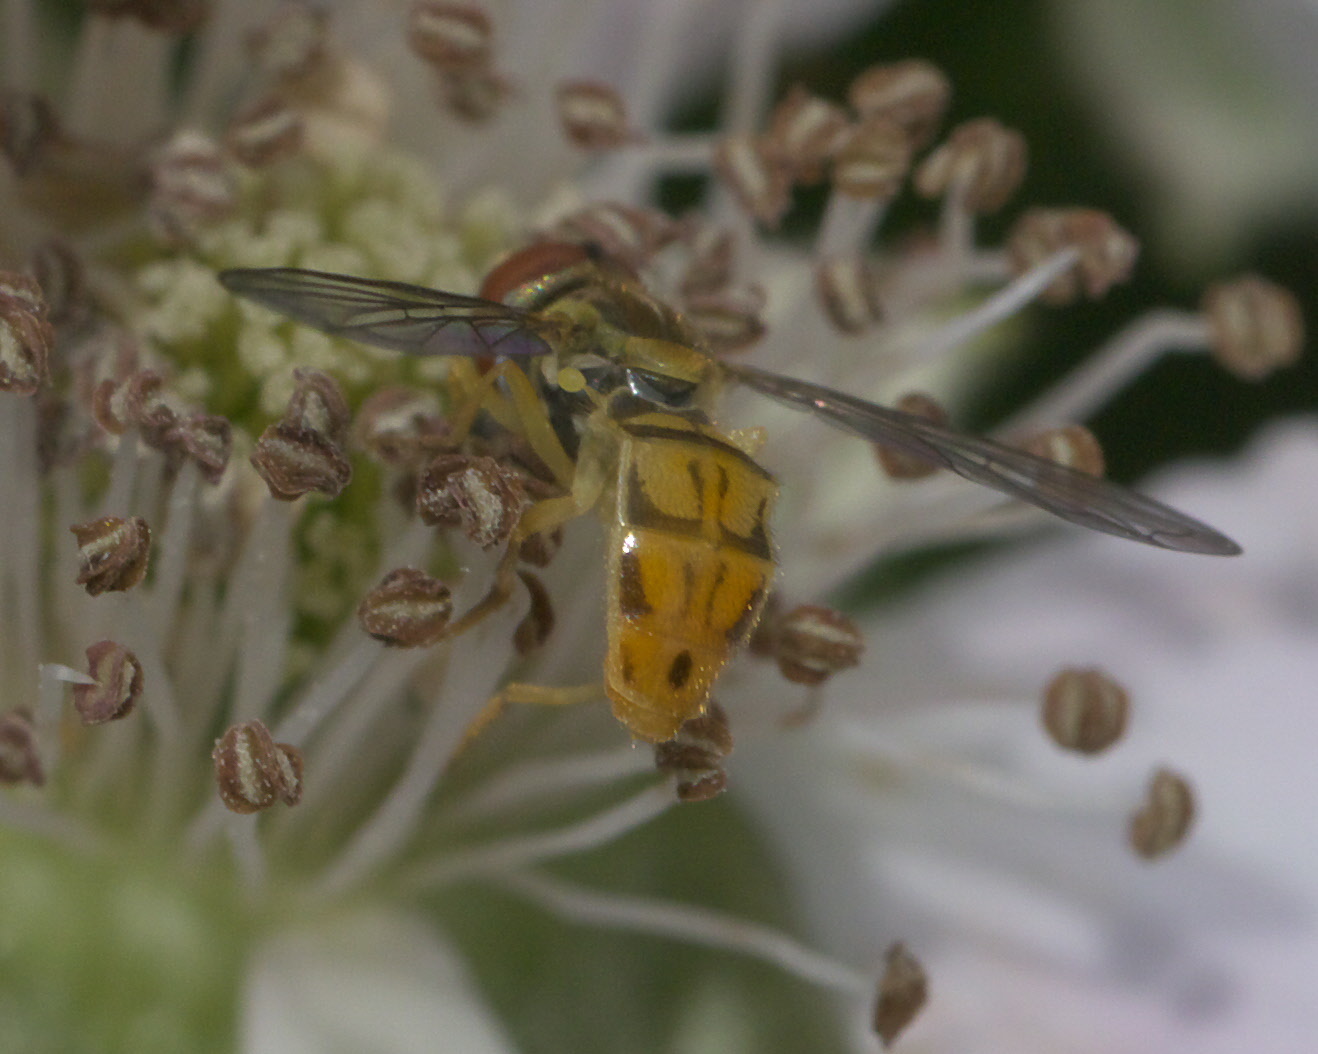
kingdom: Animalia
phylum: Arthropoda
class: Insecta
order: Diptera
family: Syrphidae
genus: Toxomerus
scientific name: Toxomerus marginatus
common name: Syrphid fly
